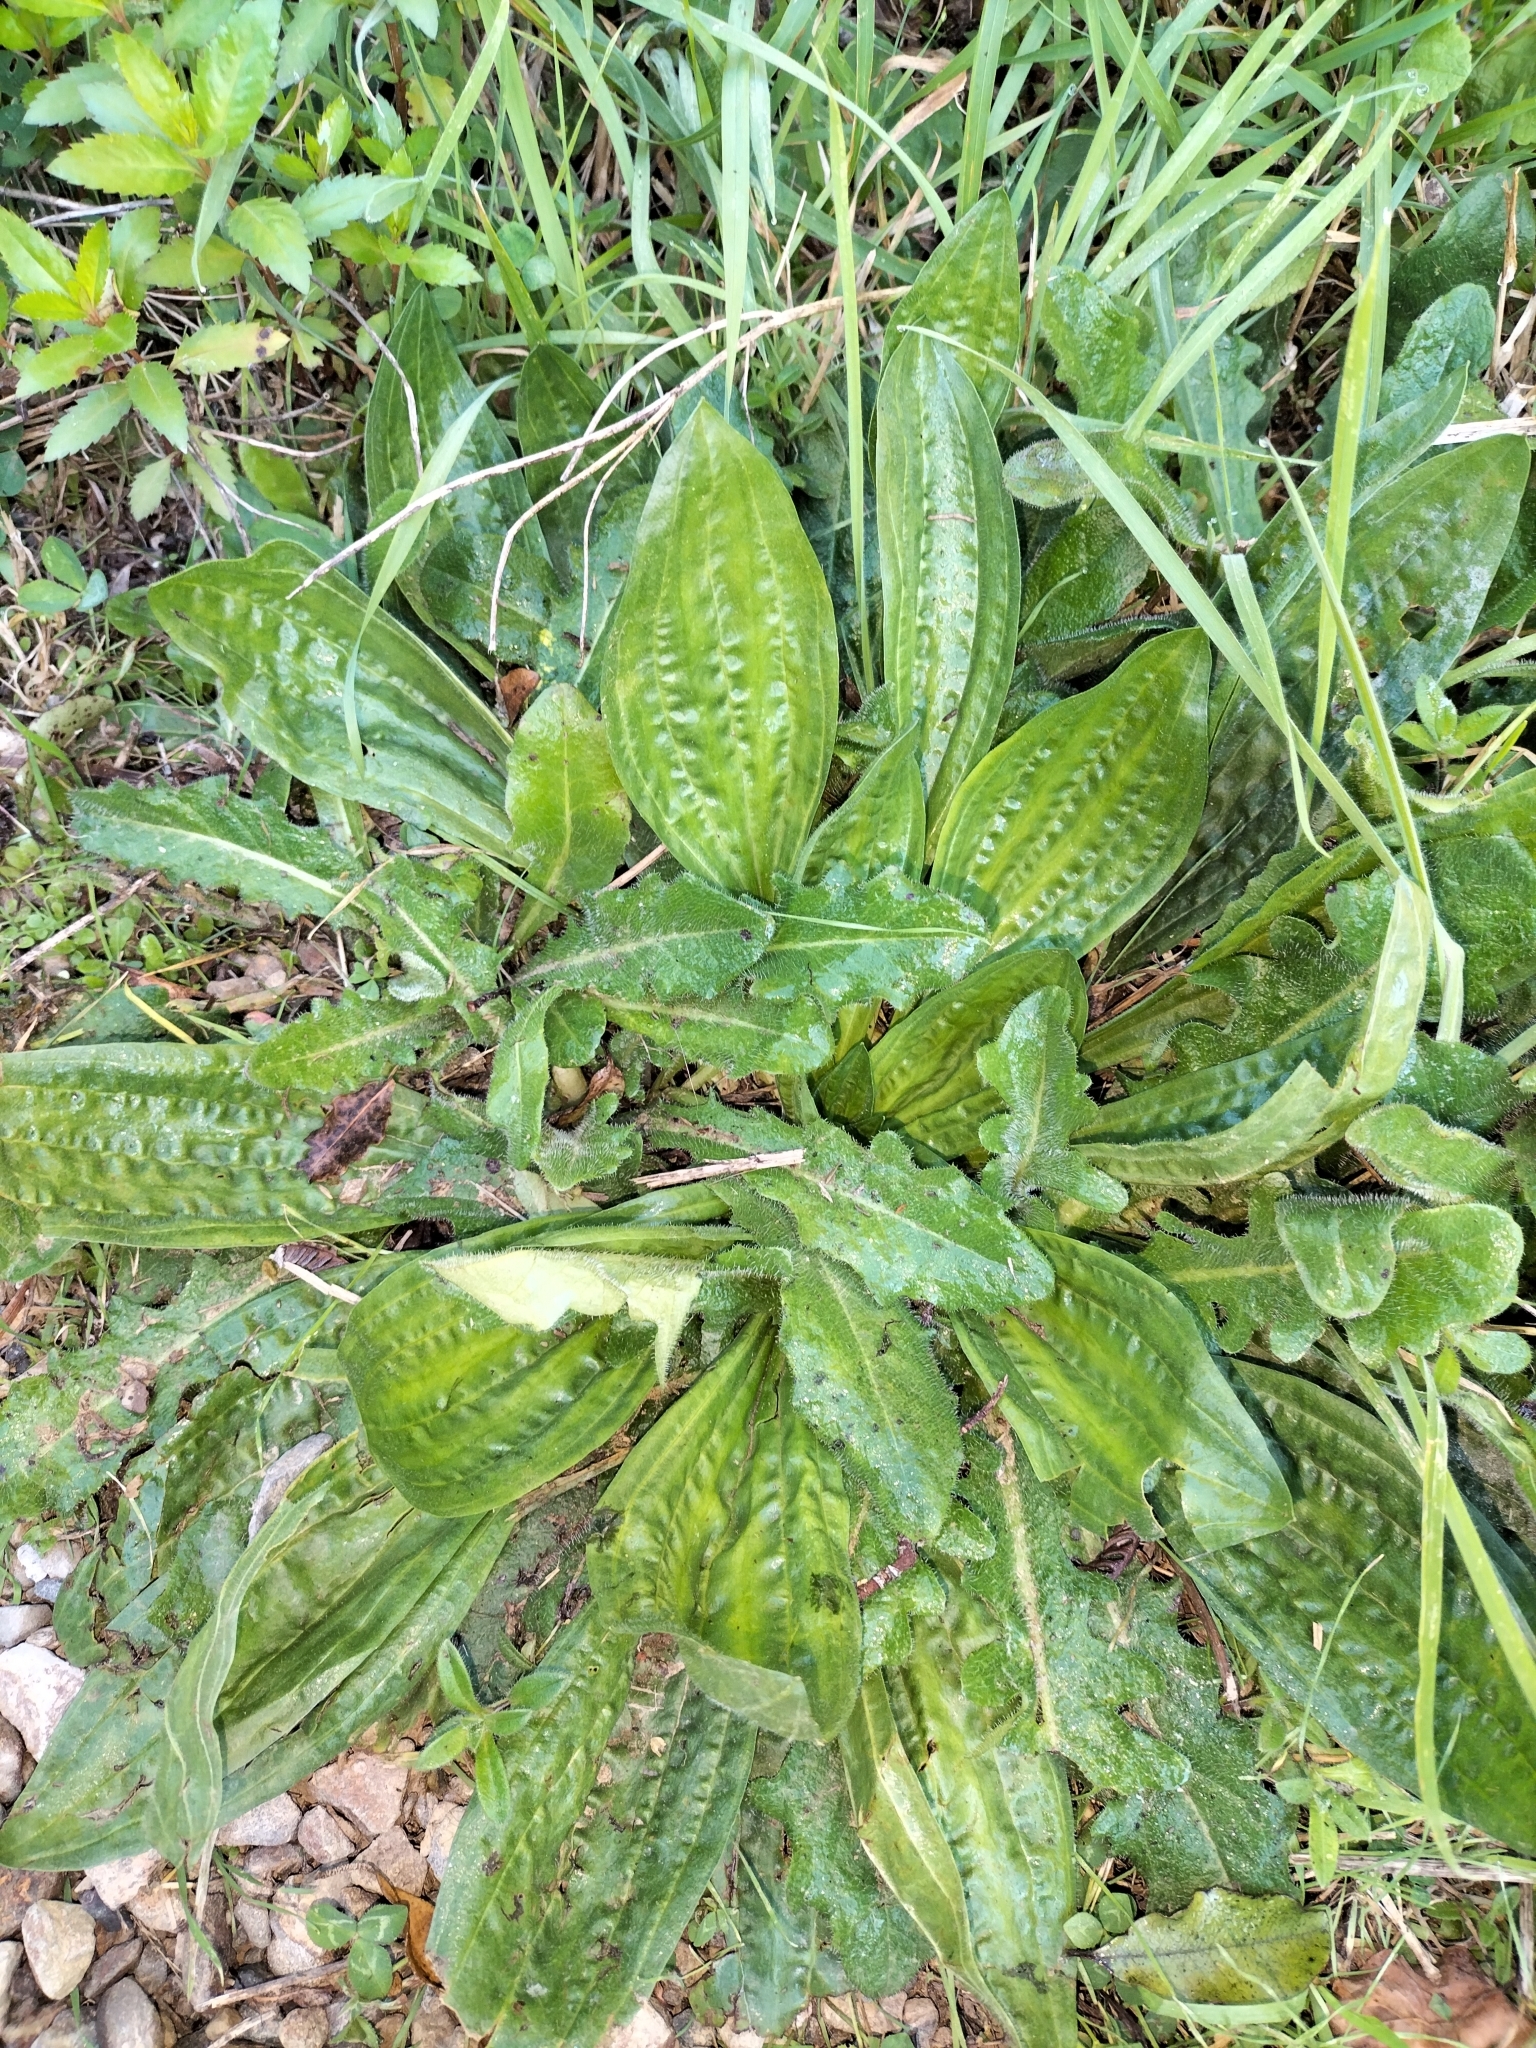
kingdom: Plantae
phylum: Tracheophyta
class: Magnoliopsida
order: Lamiales
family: Plantaginaceae
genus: Plantago
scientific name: Plantago major
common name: Common plantain
